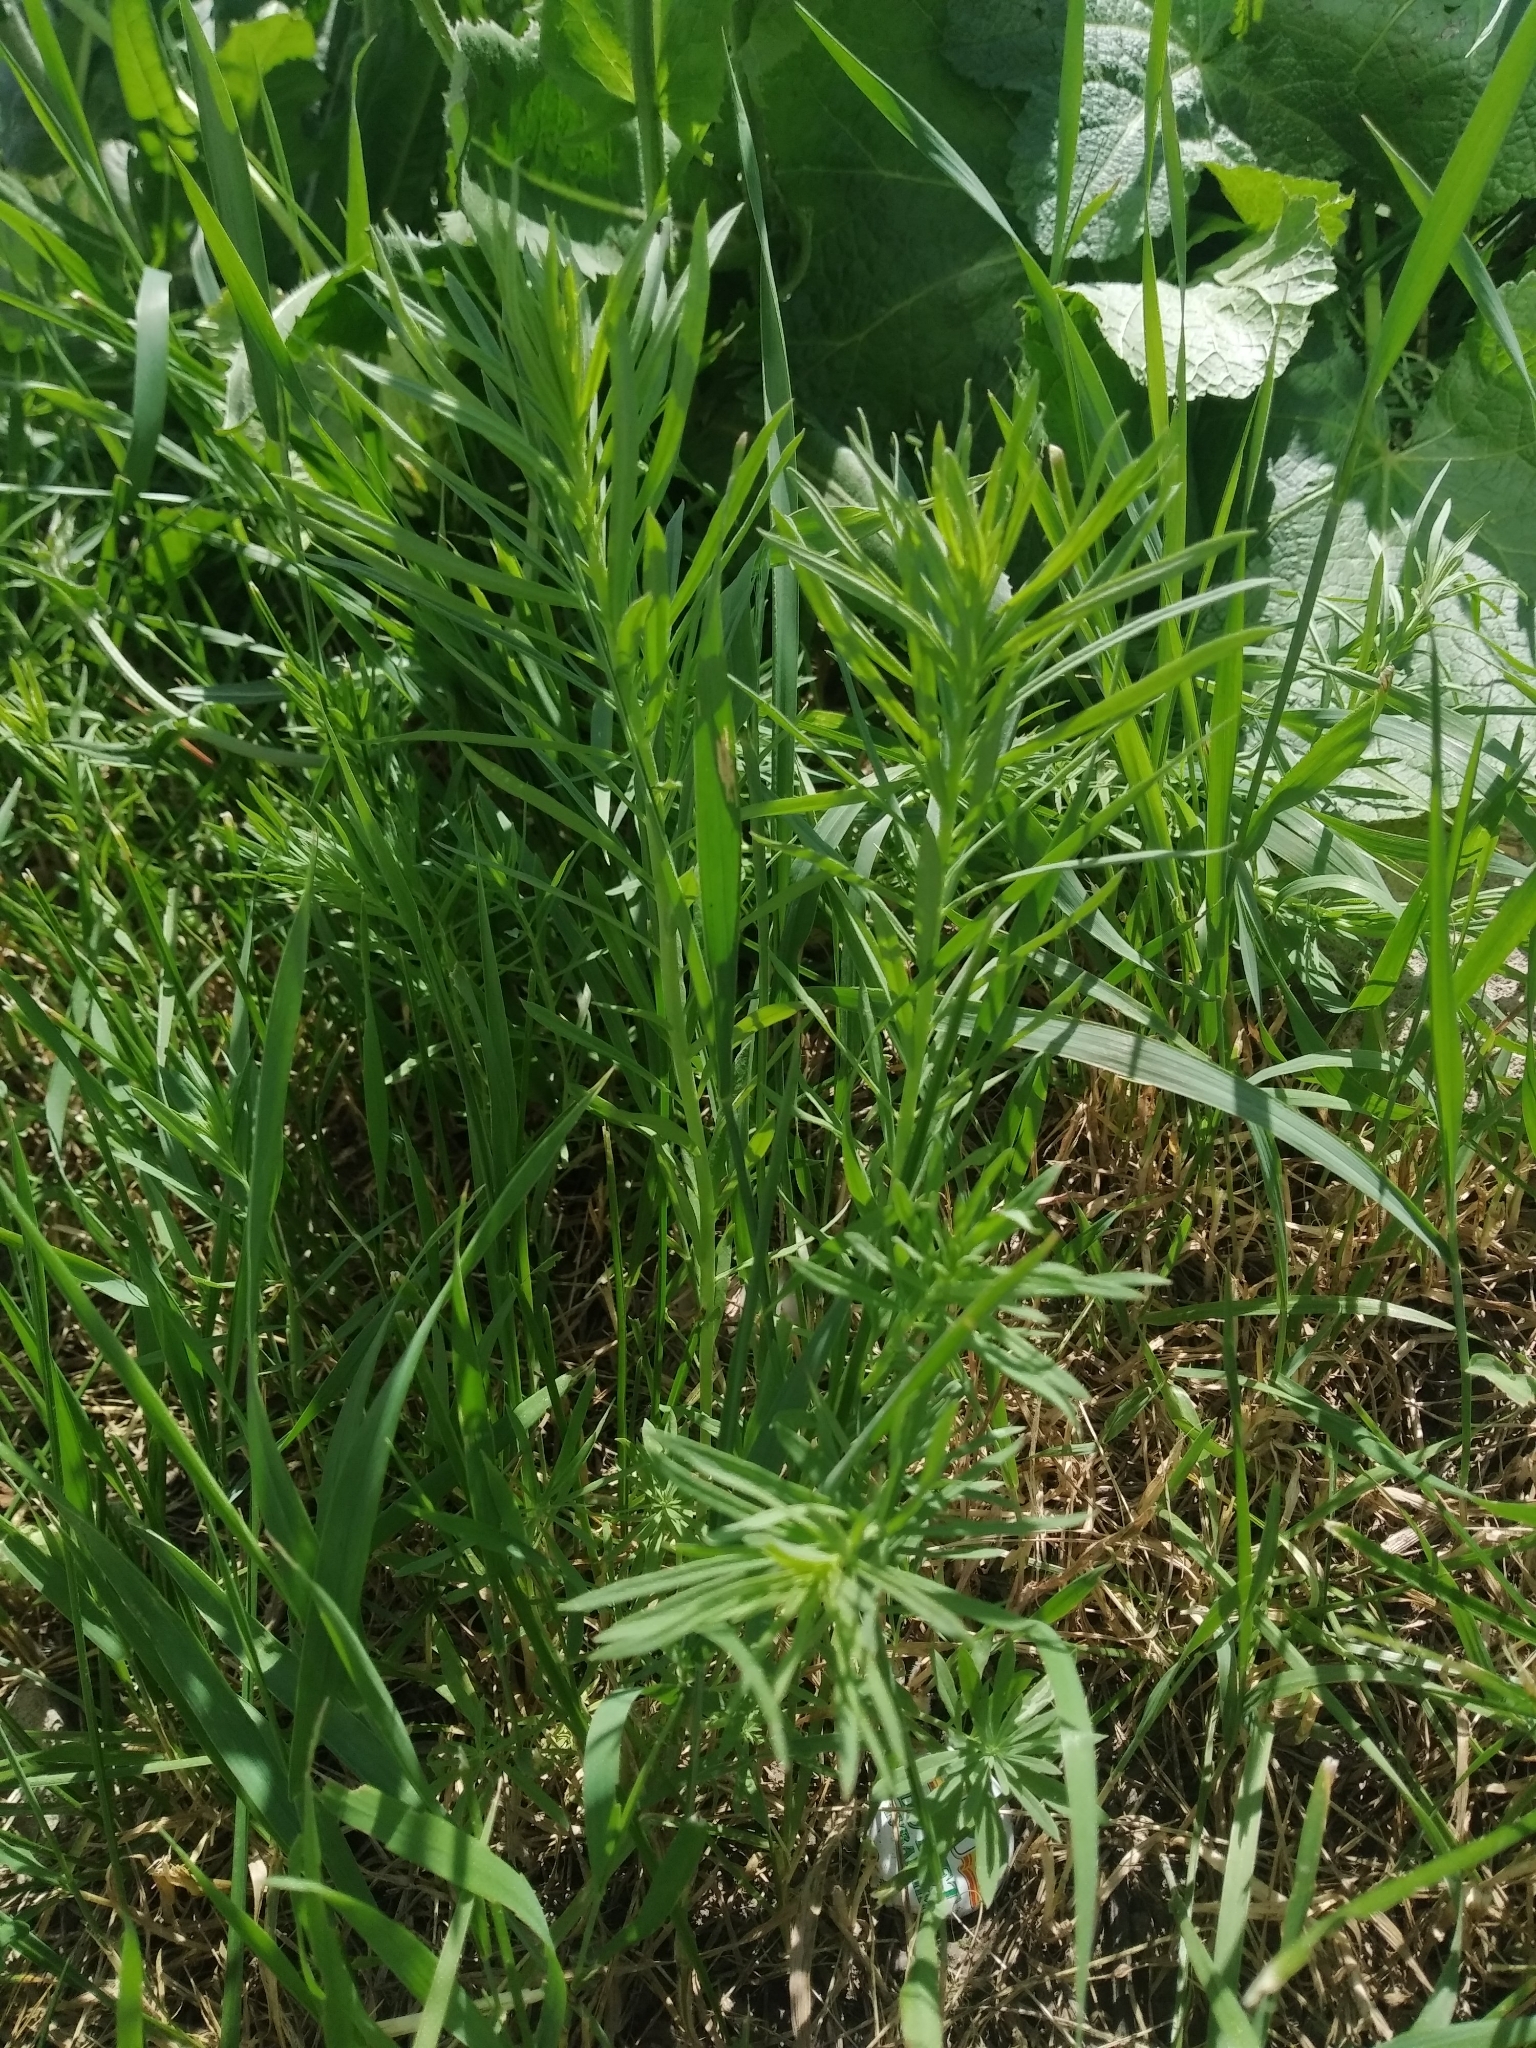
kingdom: Plantae
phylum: Tracheophyta
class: Magnoliopsida
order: Lamiales
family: Plantaginaceae
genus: Linaria
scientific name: Linaria vulgaris
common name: Butter and eggs
